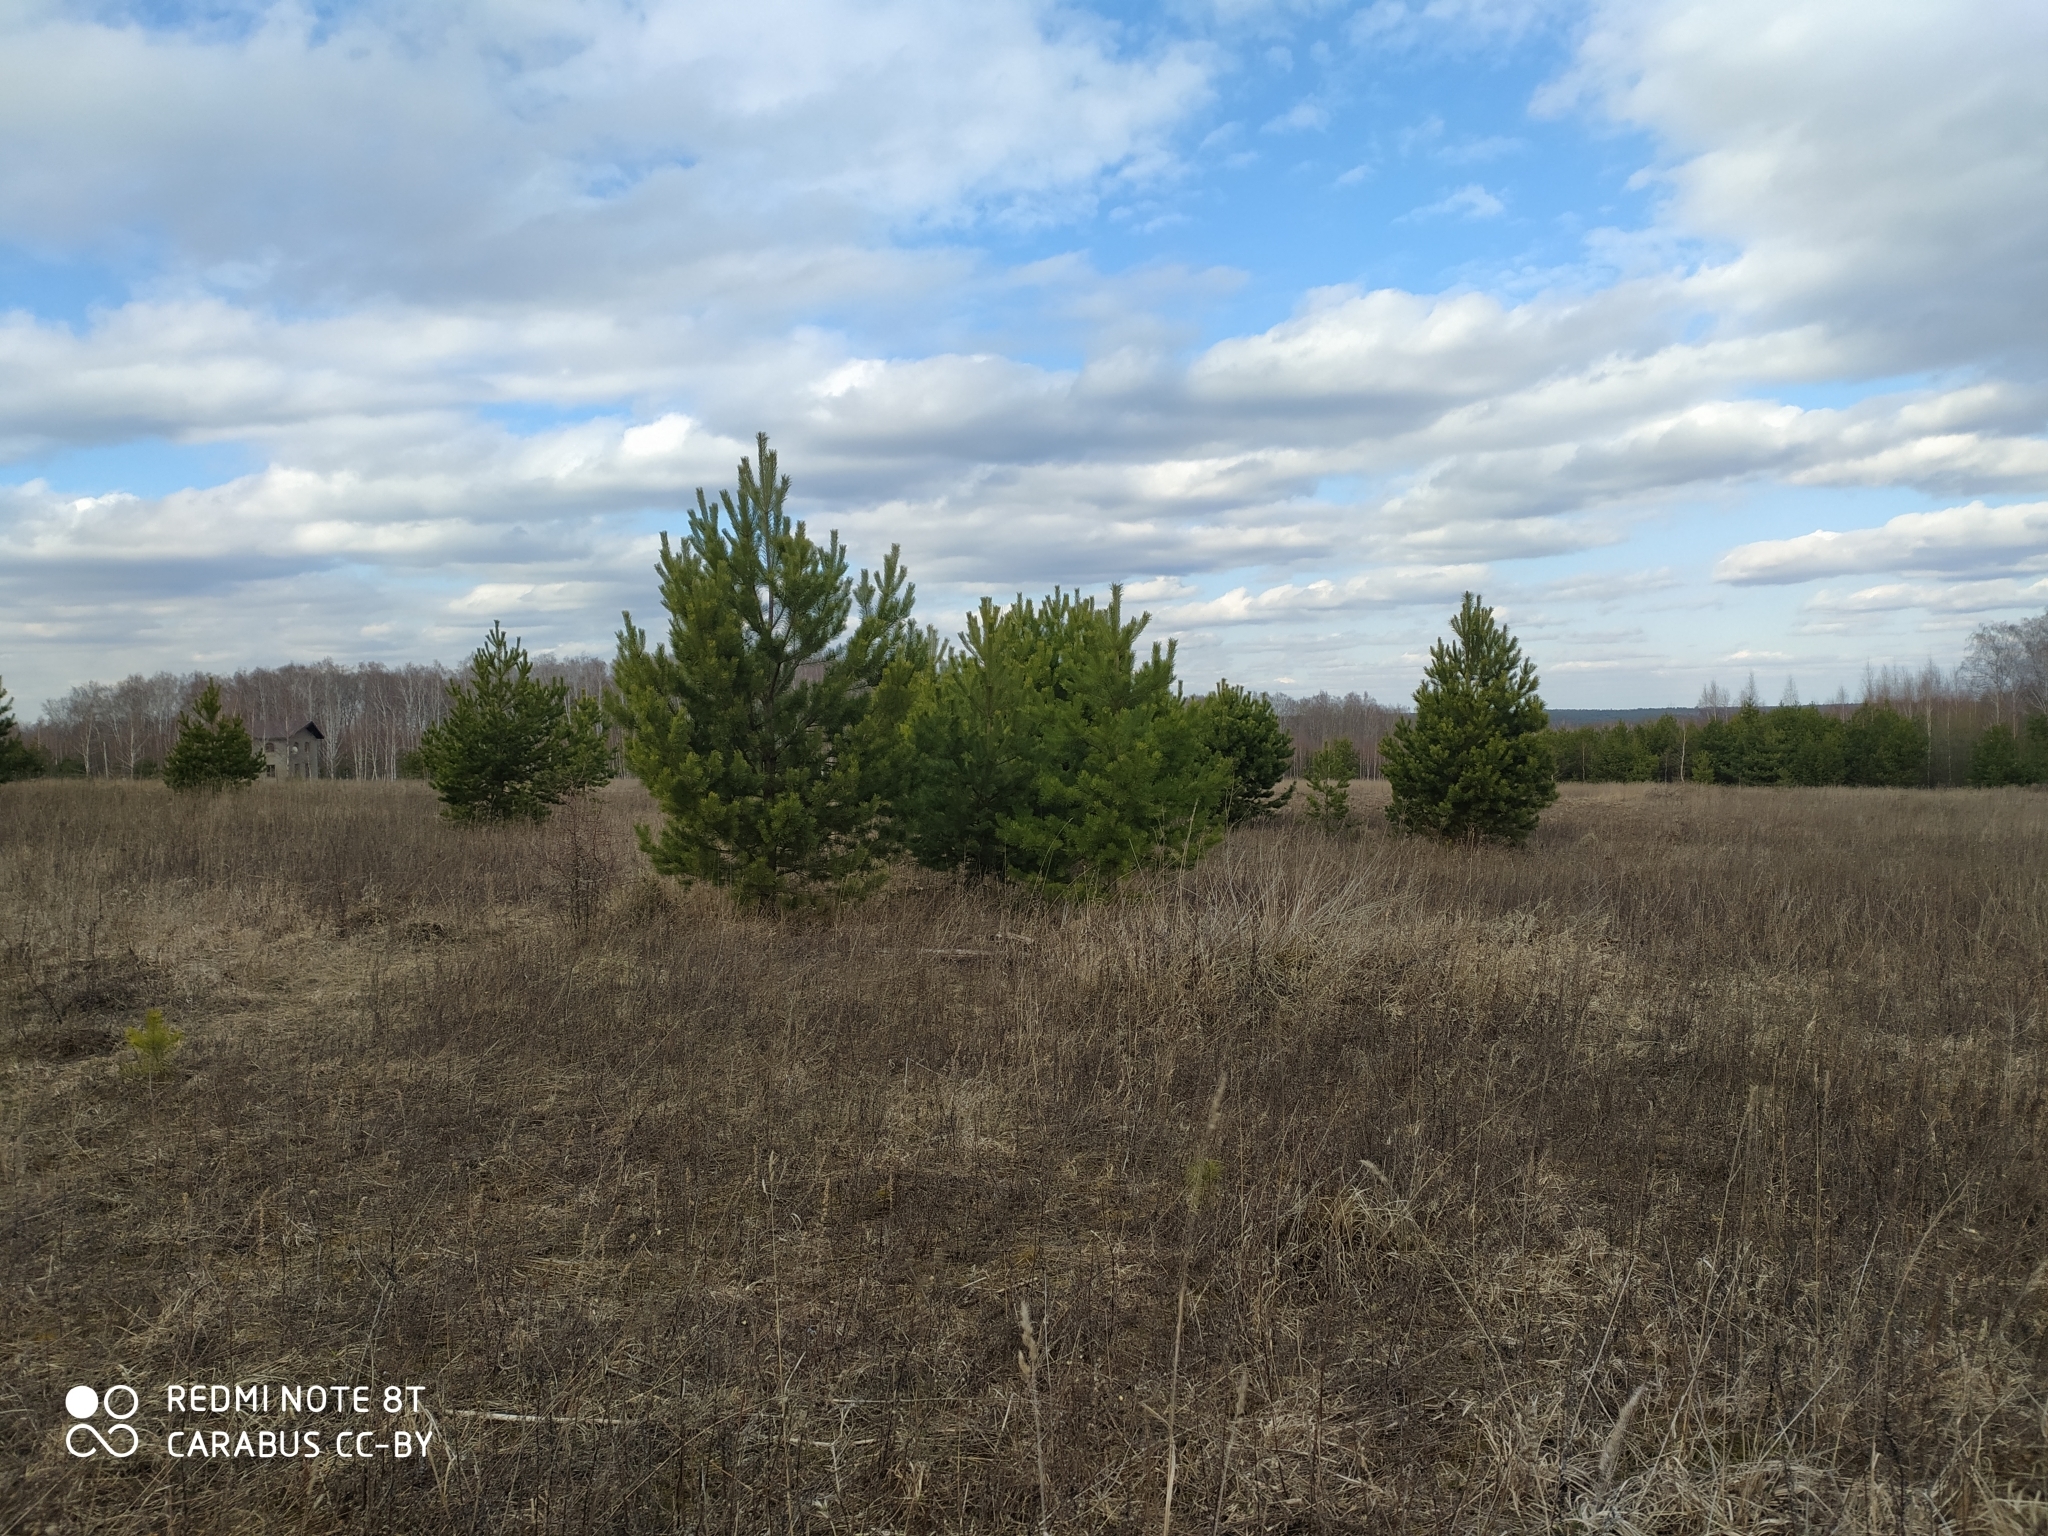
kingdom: Plantae
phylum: Tracheophyta
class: Pinopsida
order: Pinales
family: Pinaceae
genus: Pinus
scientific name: Pinus sylvestris
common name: Scots pine
